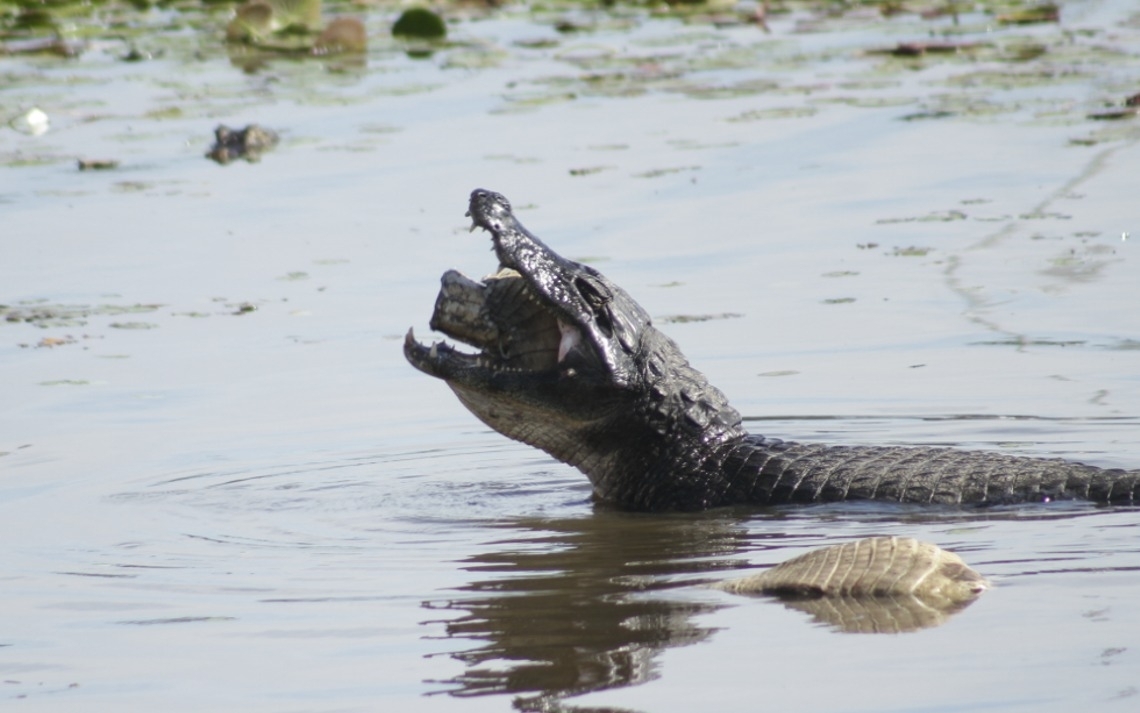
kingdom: Animalia
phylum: Chordata
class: Crocodylia
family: Alligatoridae
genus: Caiman
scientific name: Caiman yacare
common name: Yacare caiman
